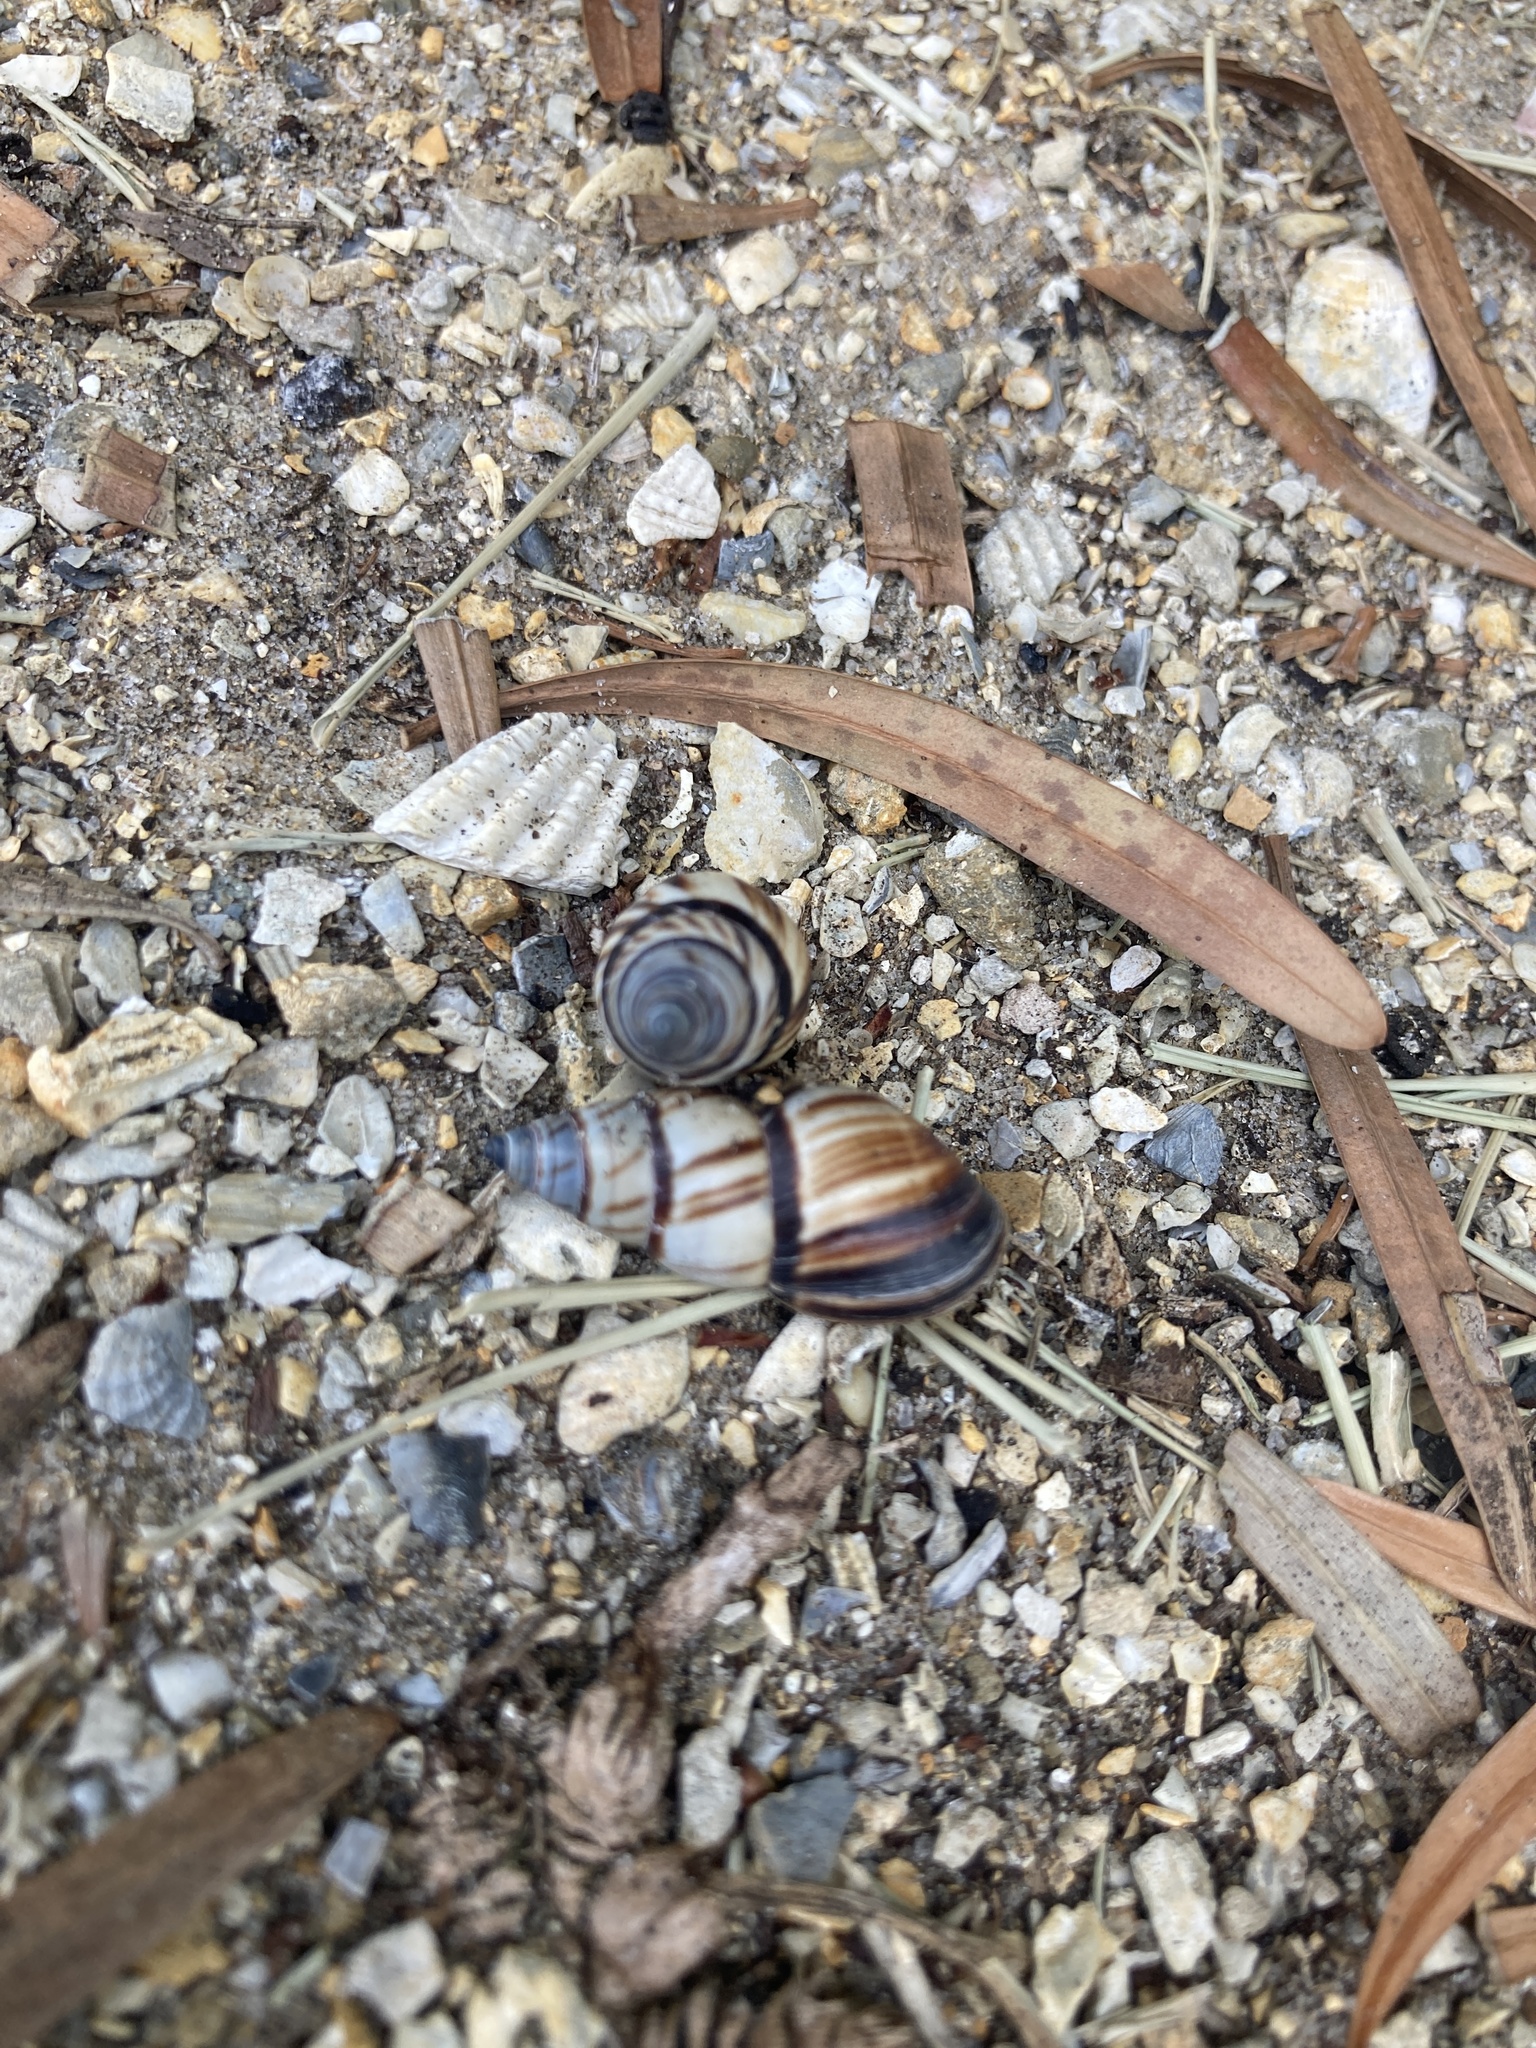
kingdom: Animalia
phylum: Mollusca
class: Gastropoda
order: Stylommatophora
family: Bulimulidae
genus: Drymaeus
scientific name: Drymaeus
